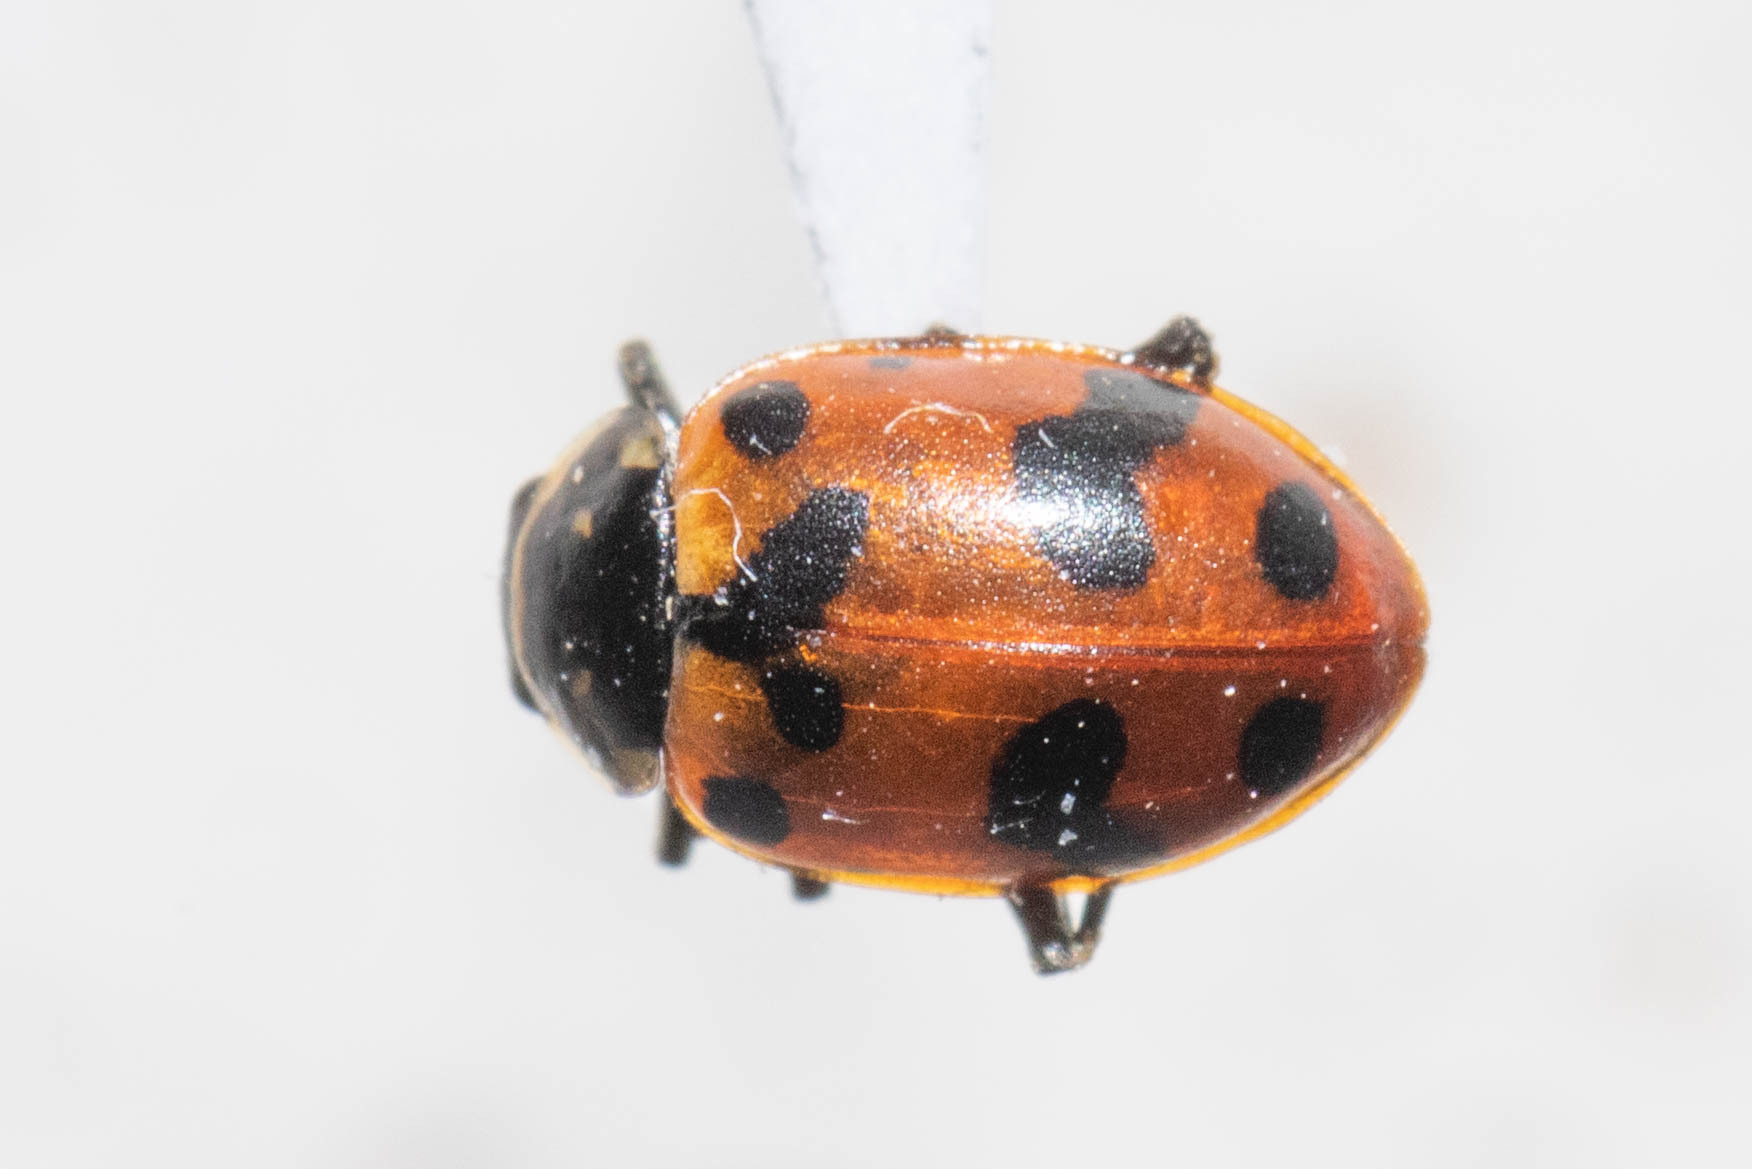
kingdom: Animalia
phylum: Arthropoda
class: Insecta
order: Coleoptera
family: Coccinellidae
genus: Hippodamia
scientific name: Hippodamia caseyi
